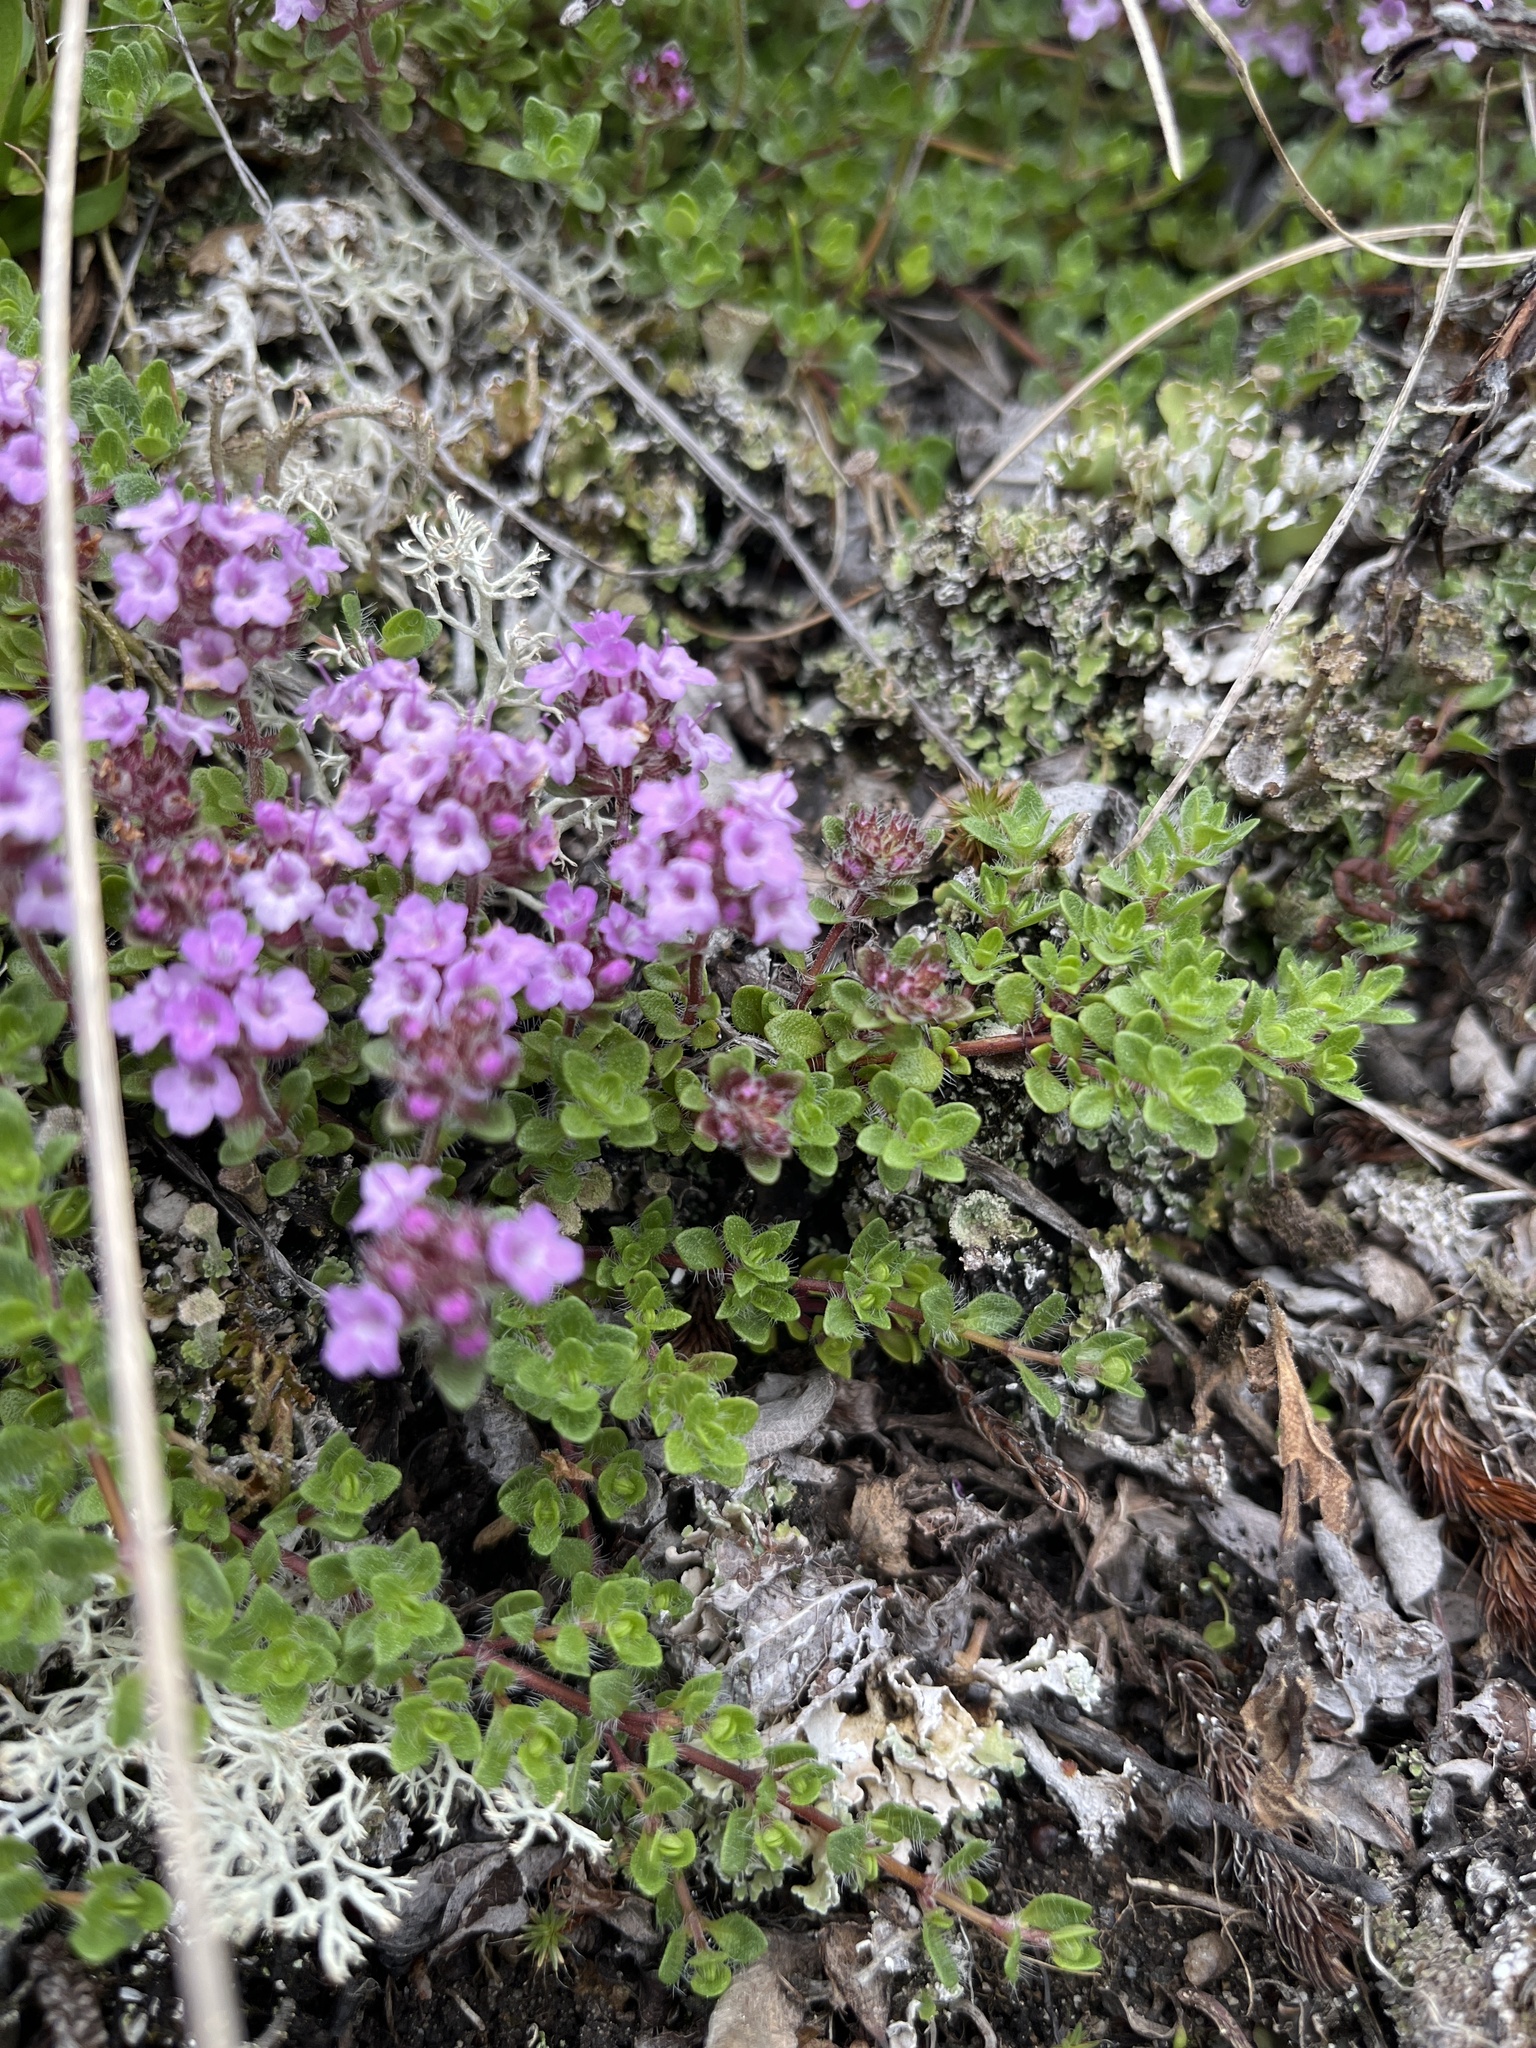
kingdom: Plantae
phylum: Tracheophyta
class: Magnoliopsida
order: Lamiales
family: Lamiaceae
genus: Thymus
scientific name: Thymus praecox
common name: Wild thyme
